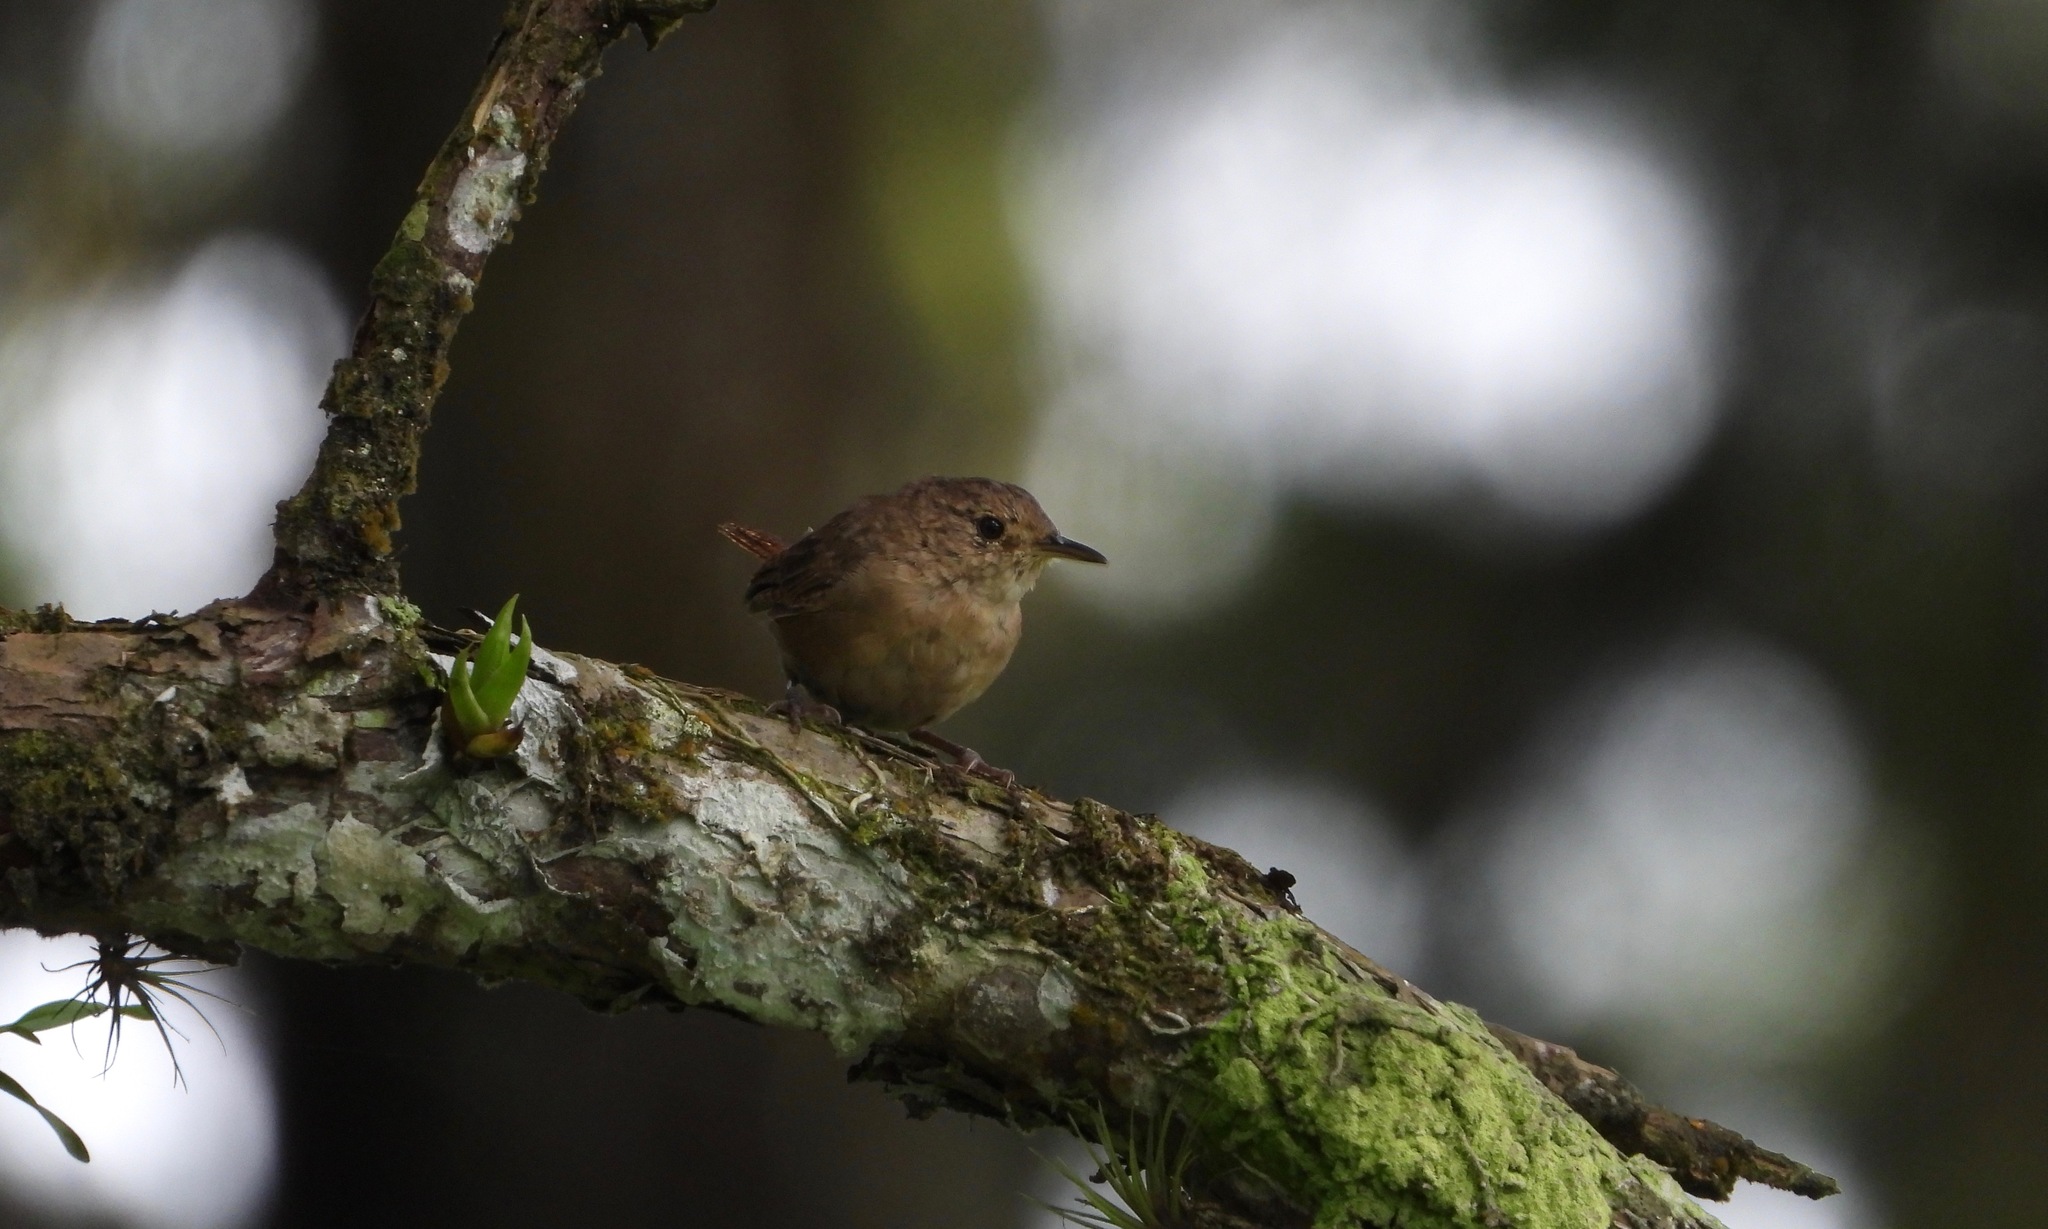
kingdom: Animalia
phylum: Chordata
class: Aves
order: Passeriformes
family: Troglodytidae
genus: Troglodytes
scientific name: Troglodytes aedon
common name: House wren
